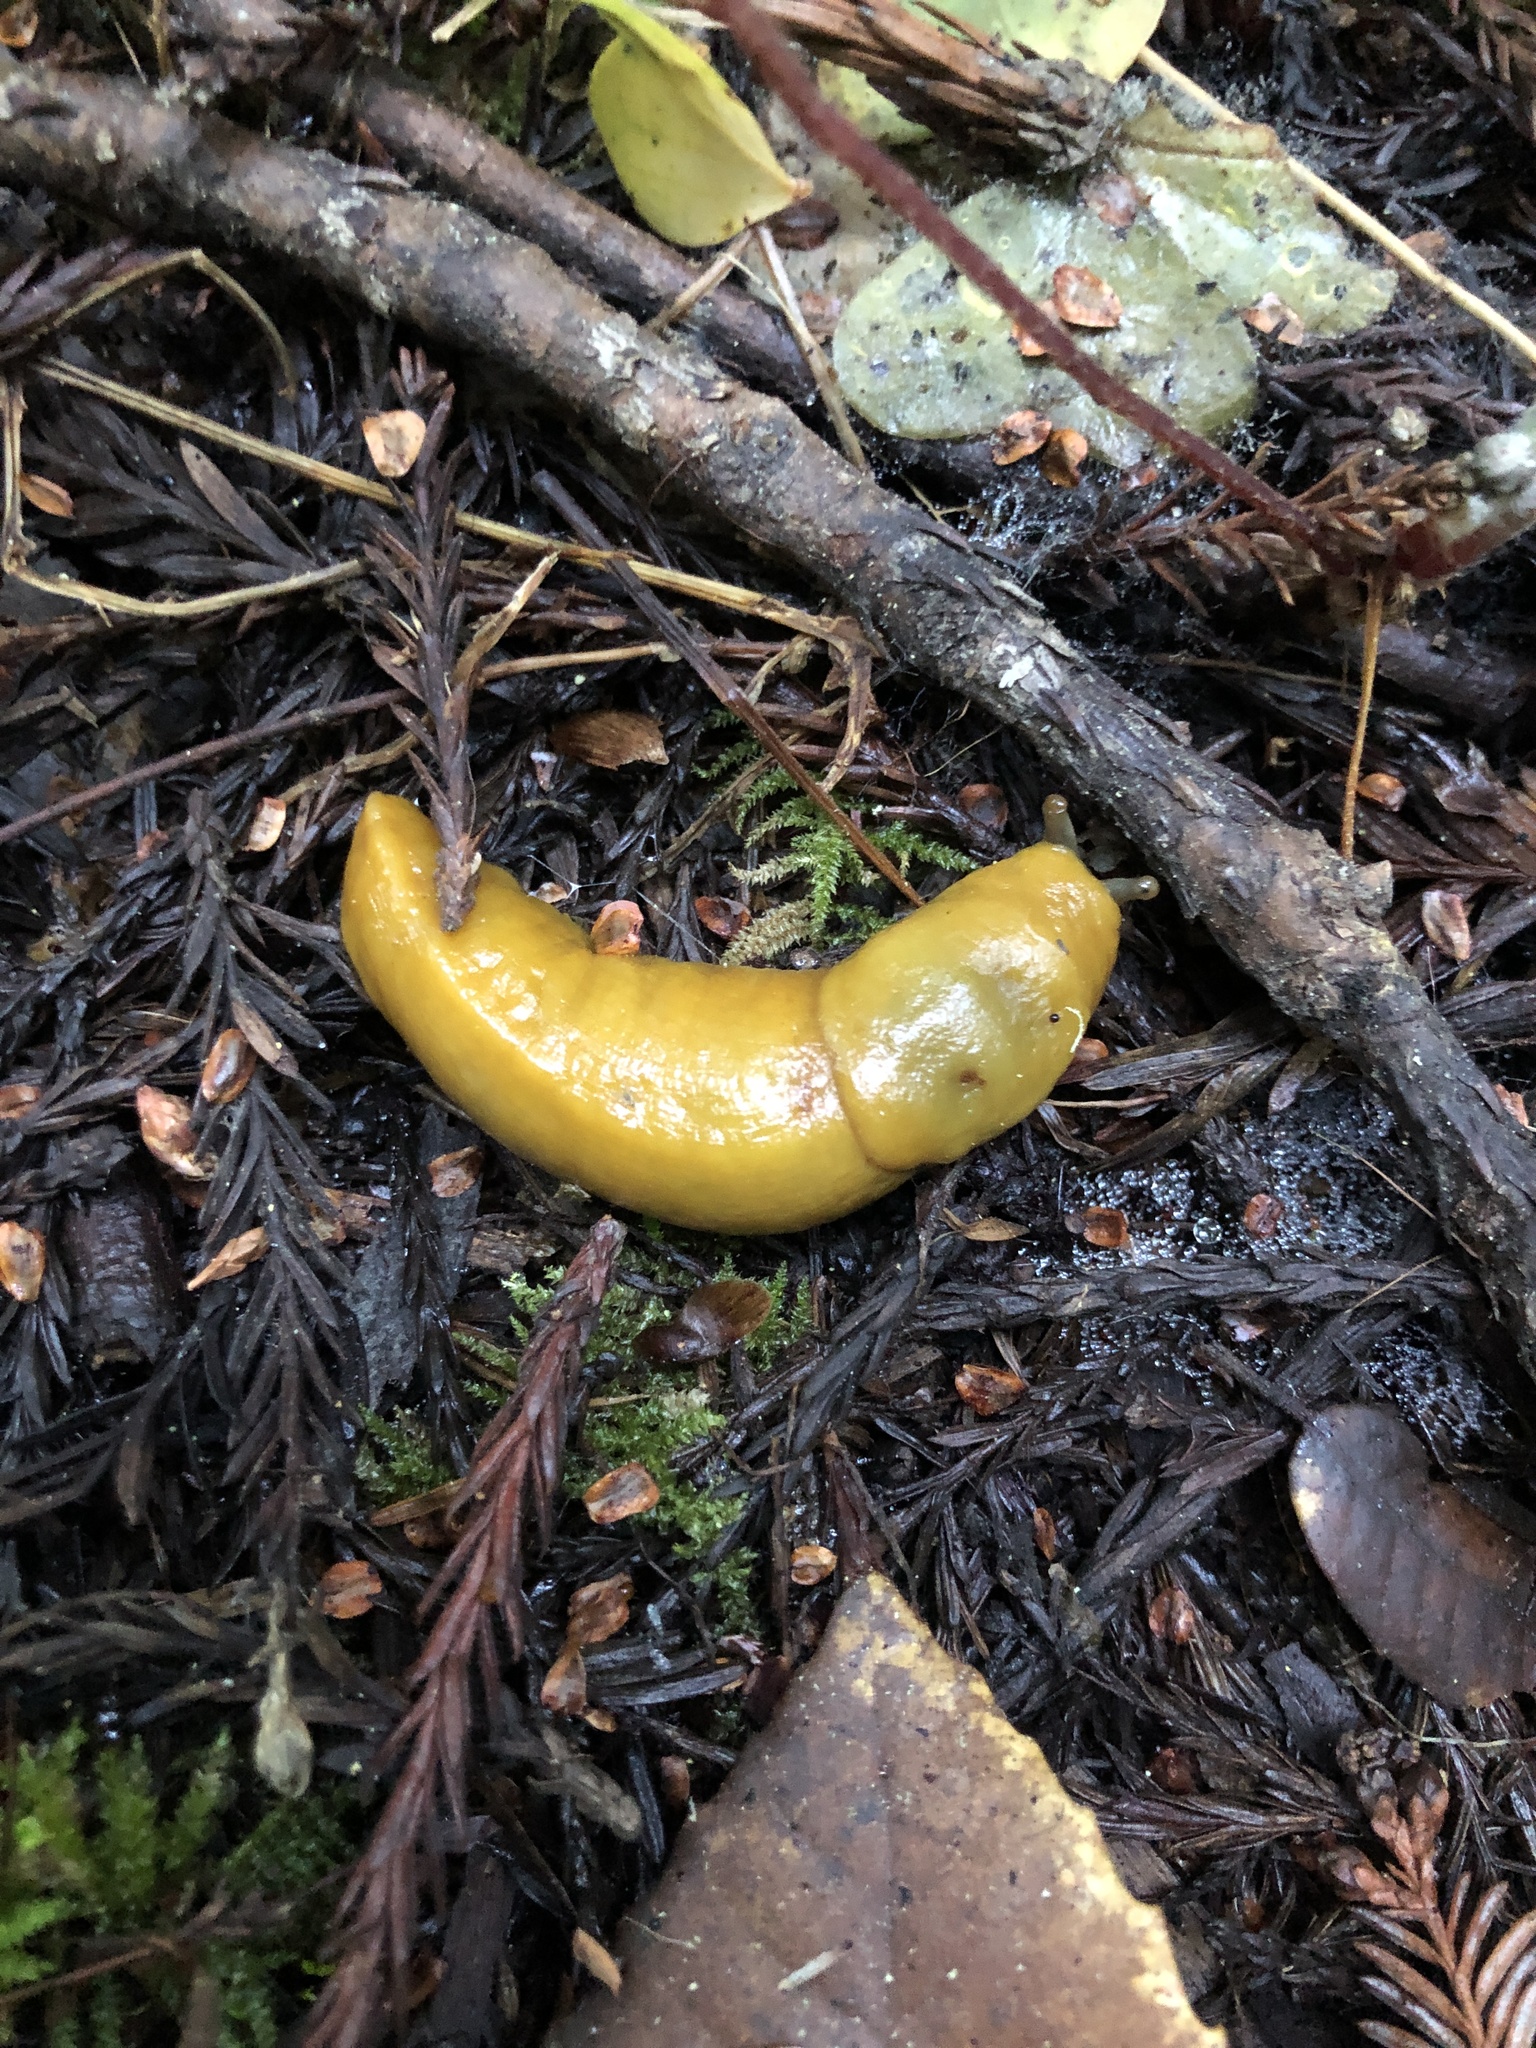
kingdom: Animalia
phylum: Mollusca
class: Gastropoda
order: Stylommatophora
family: Ariolimacidae
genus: Ariolimax
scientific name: Ariolimax californicus
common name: California banana slug
